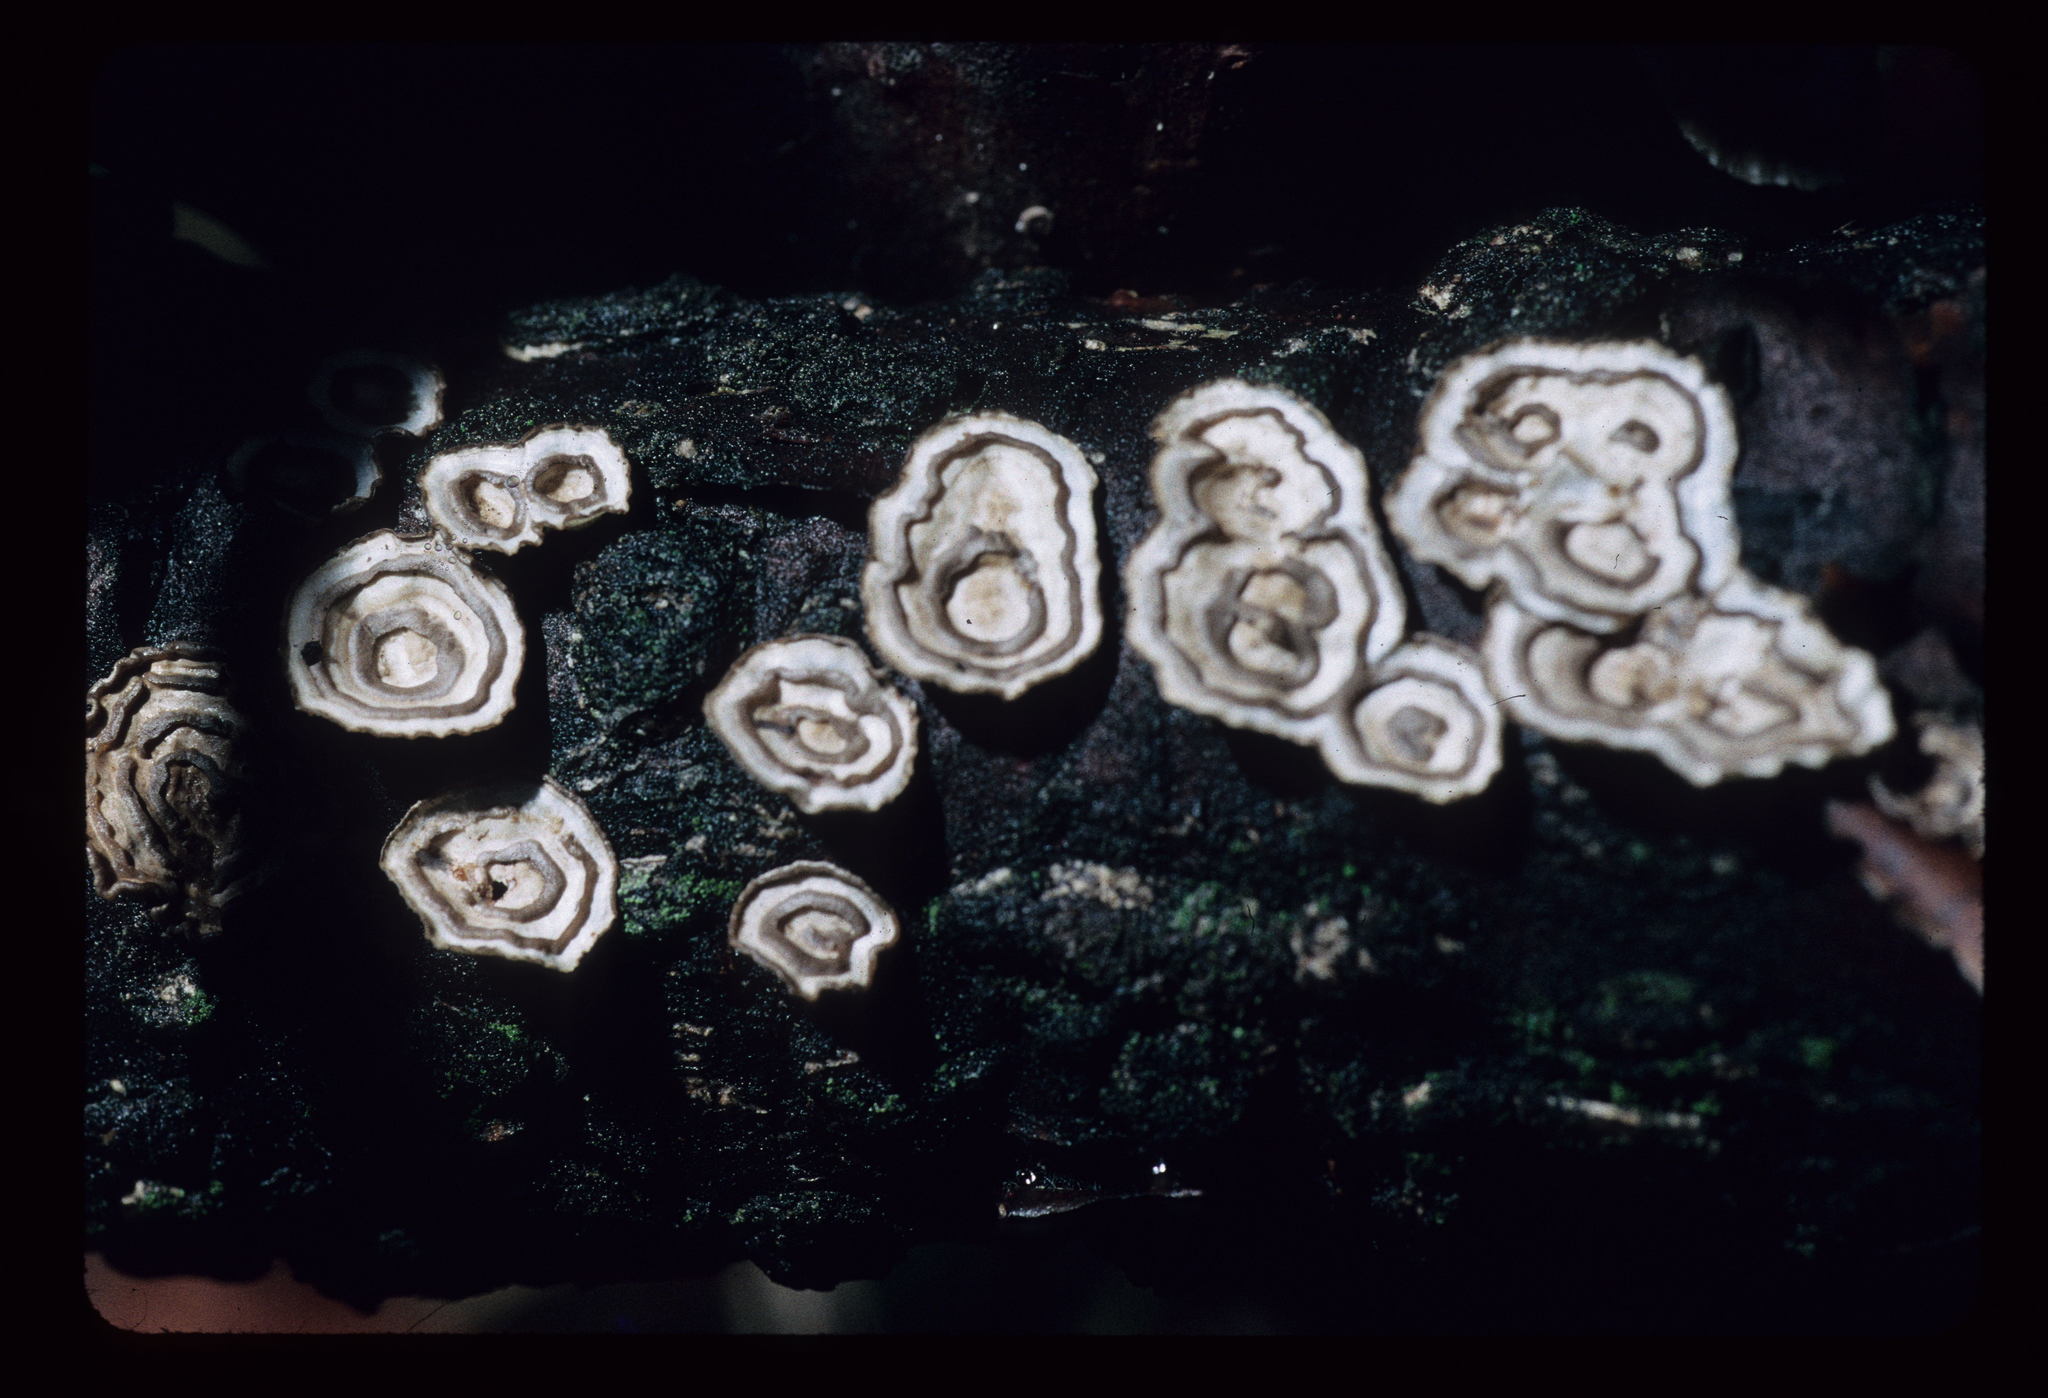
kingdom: Fungi
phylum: Basidiomycota
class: Agaricomycetes
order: Polyporales
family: Polyporaceae
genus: Poronidulus
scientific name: Poronidulus conchifer
